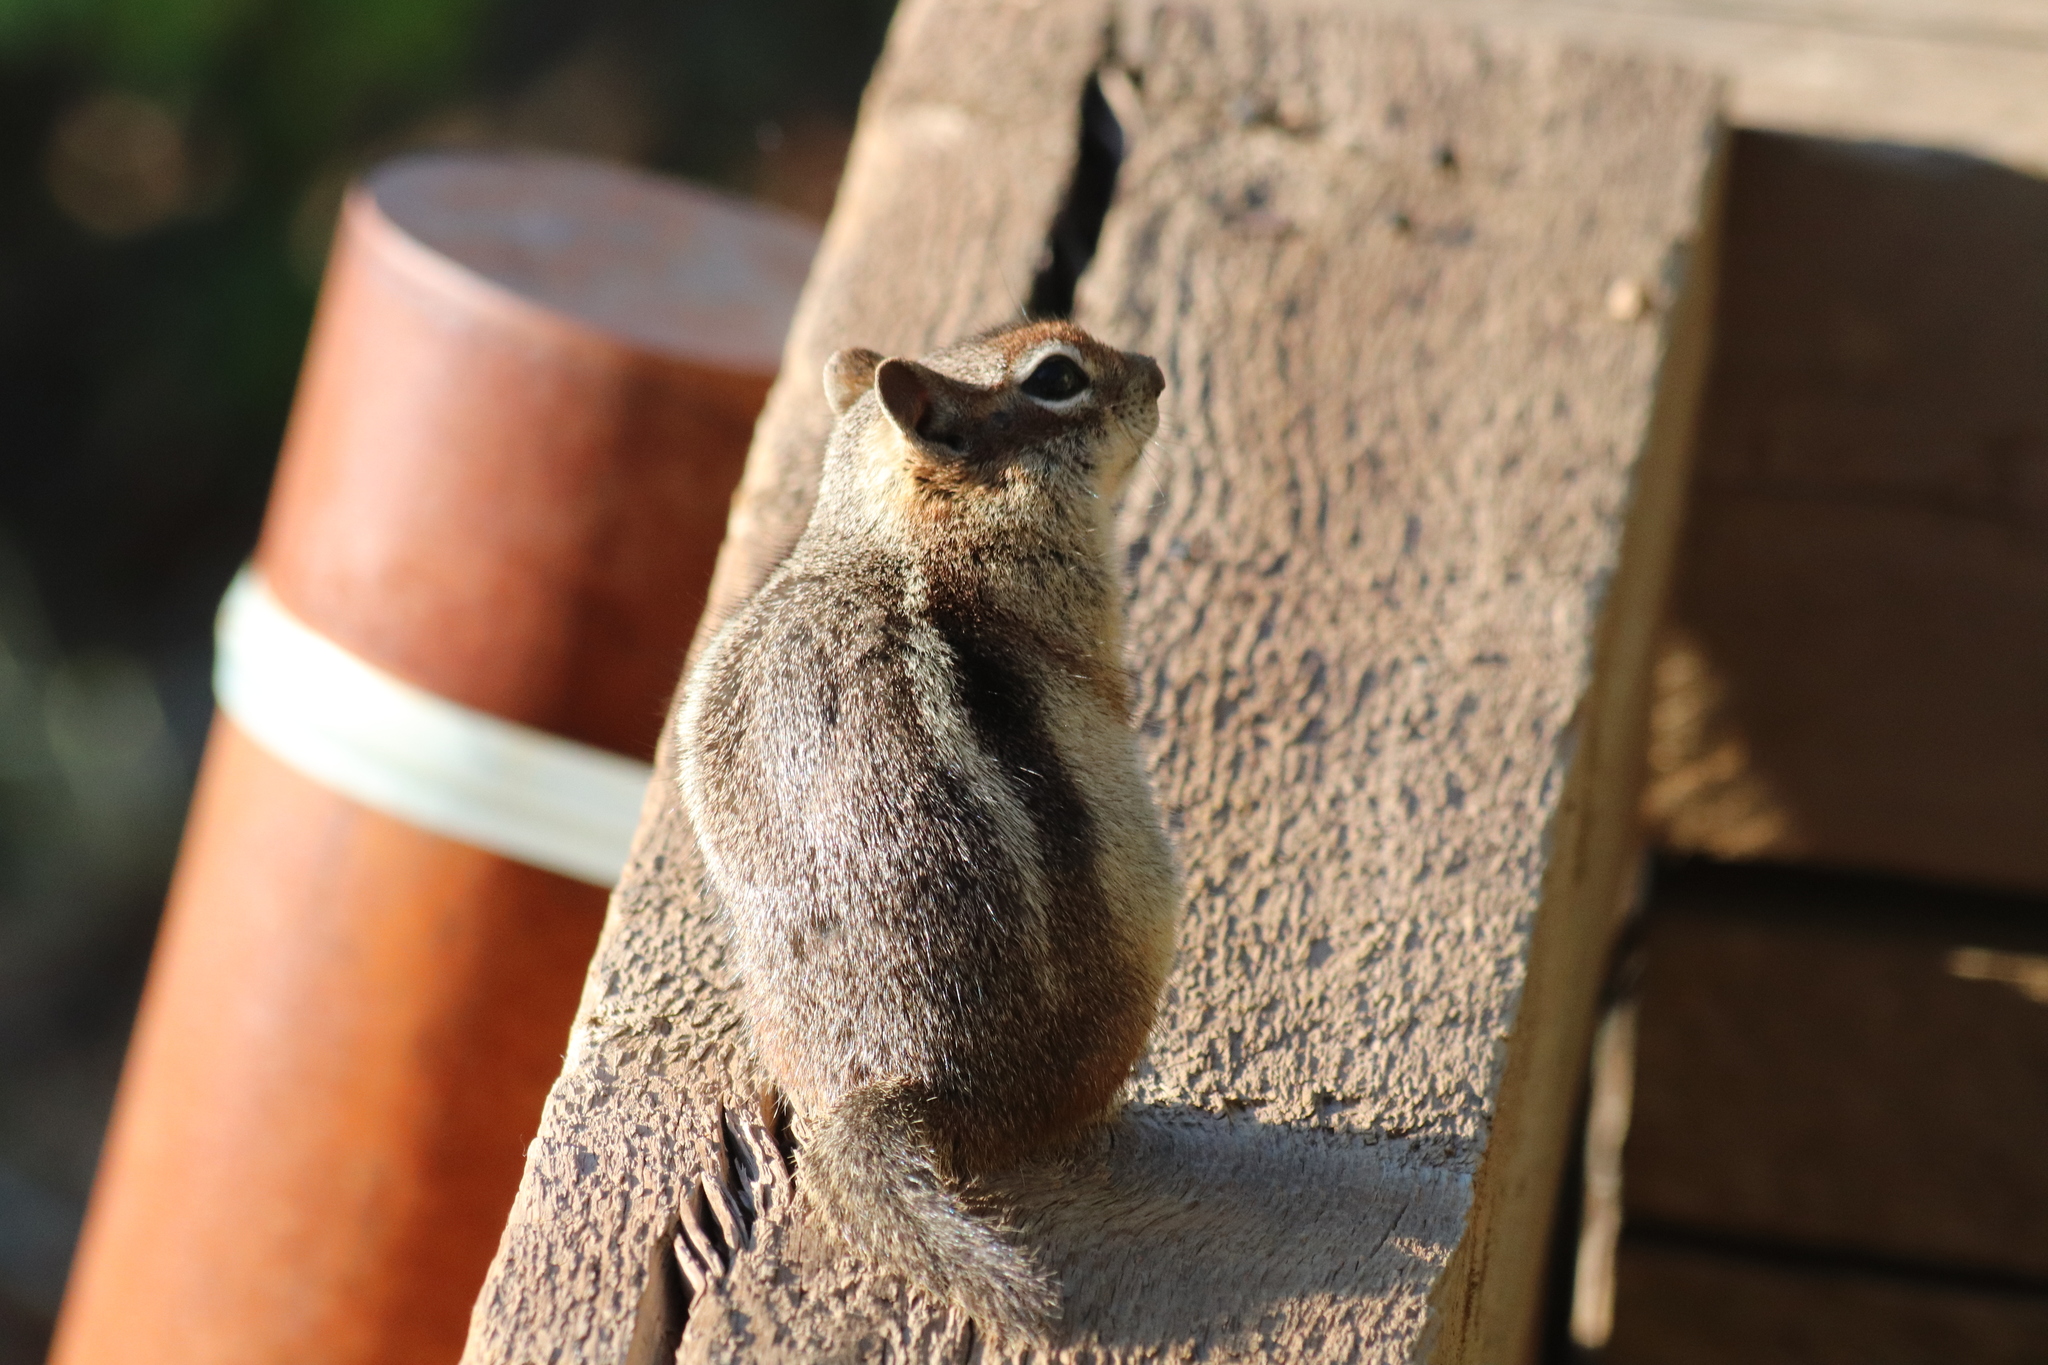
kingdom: Animalia
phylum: Chordata
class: Mammalia
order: Rodentia
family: Sciuridae
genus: Callospermophilus
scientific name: Callospermophilus lateralis
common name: Golden-mantled ground squirrel
